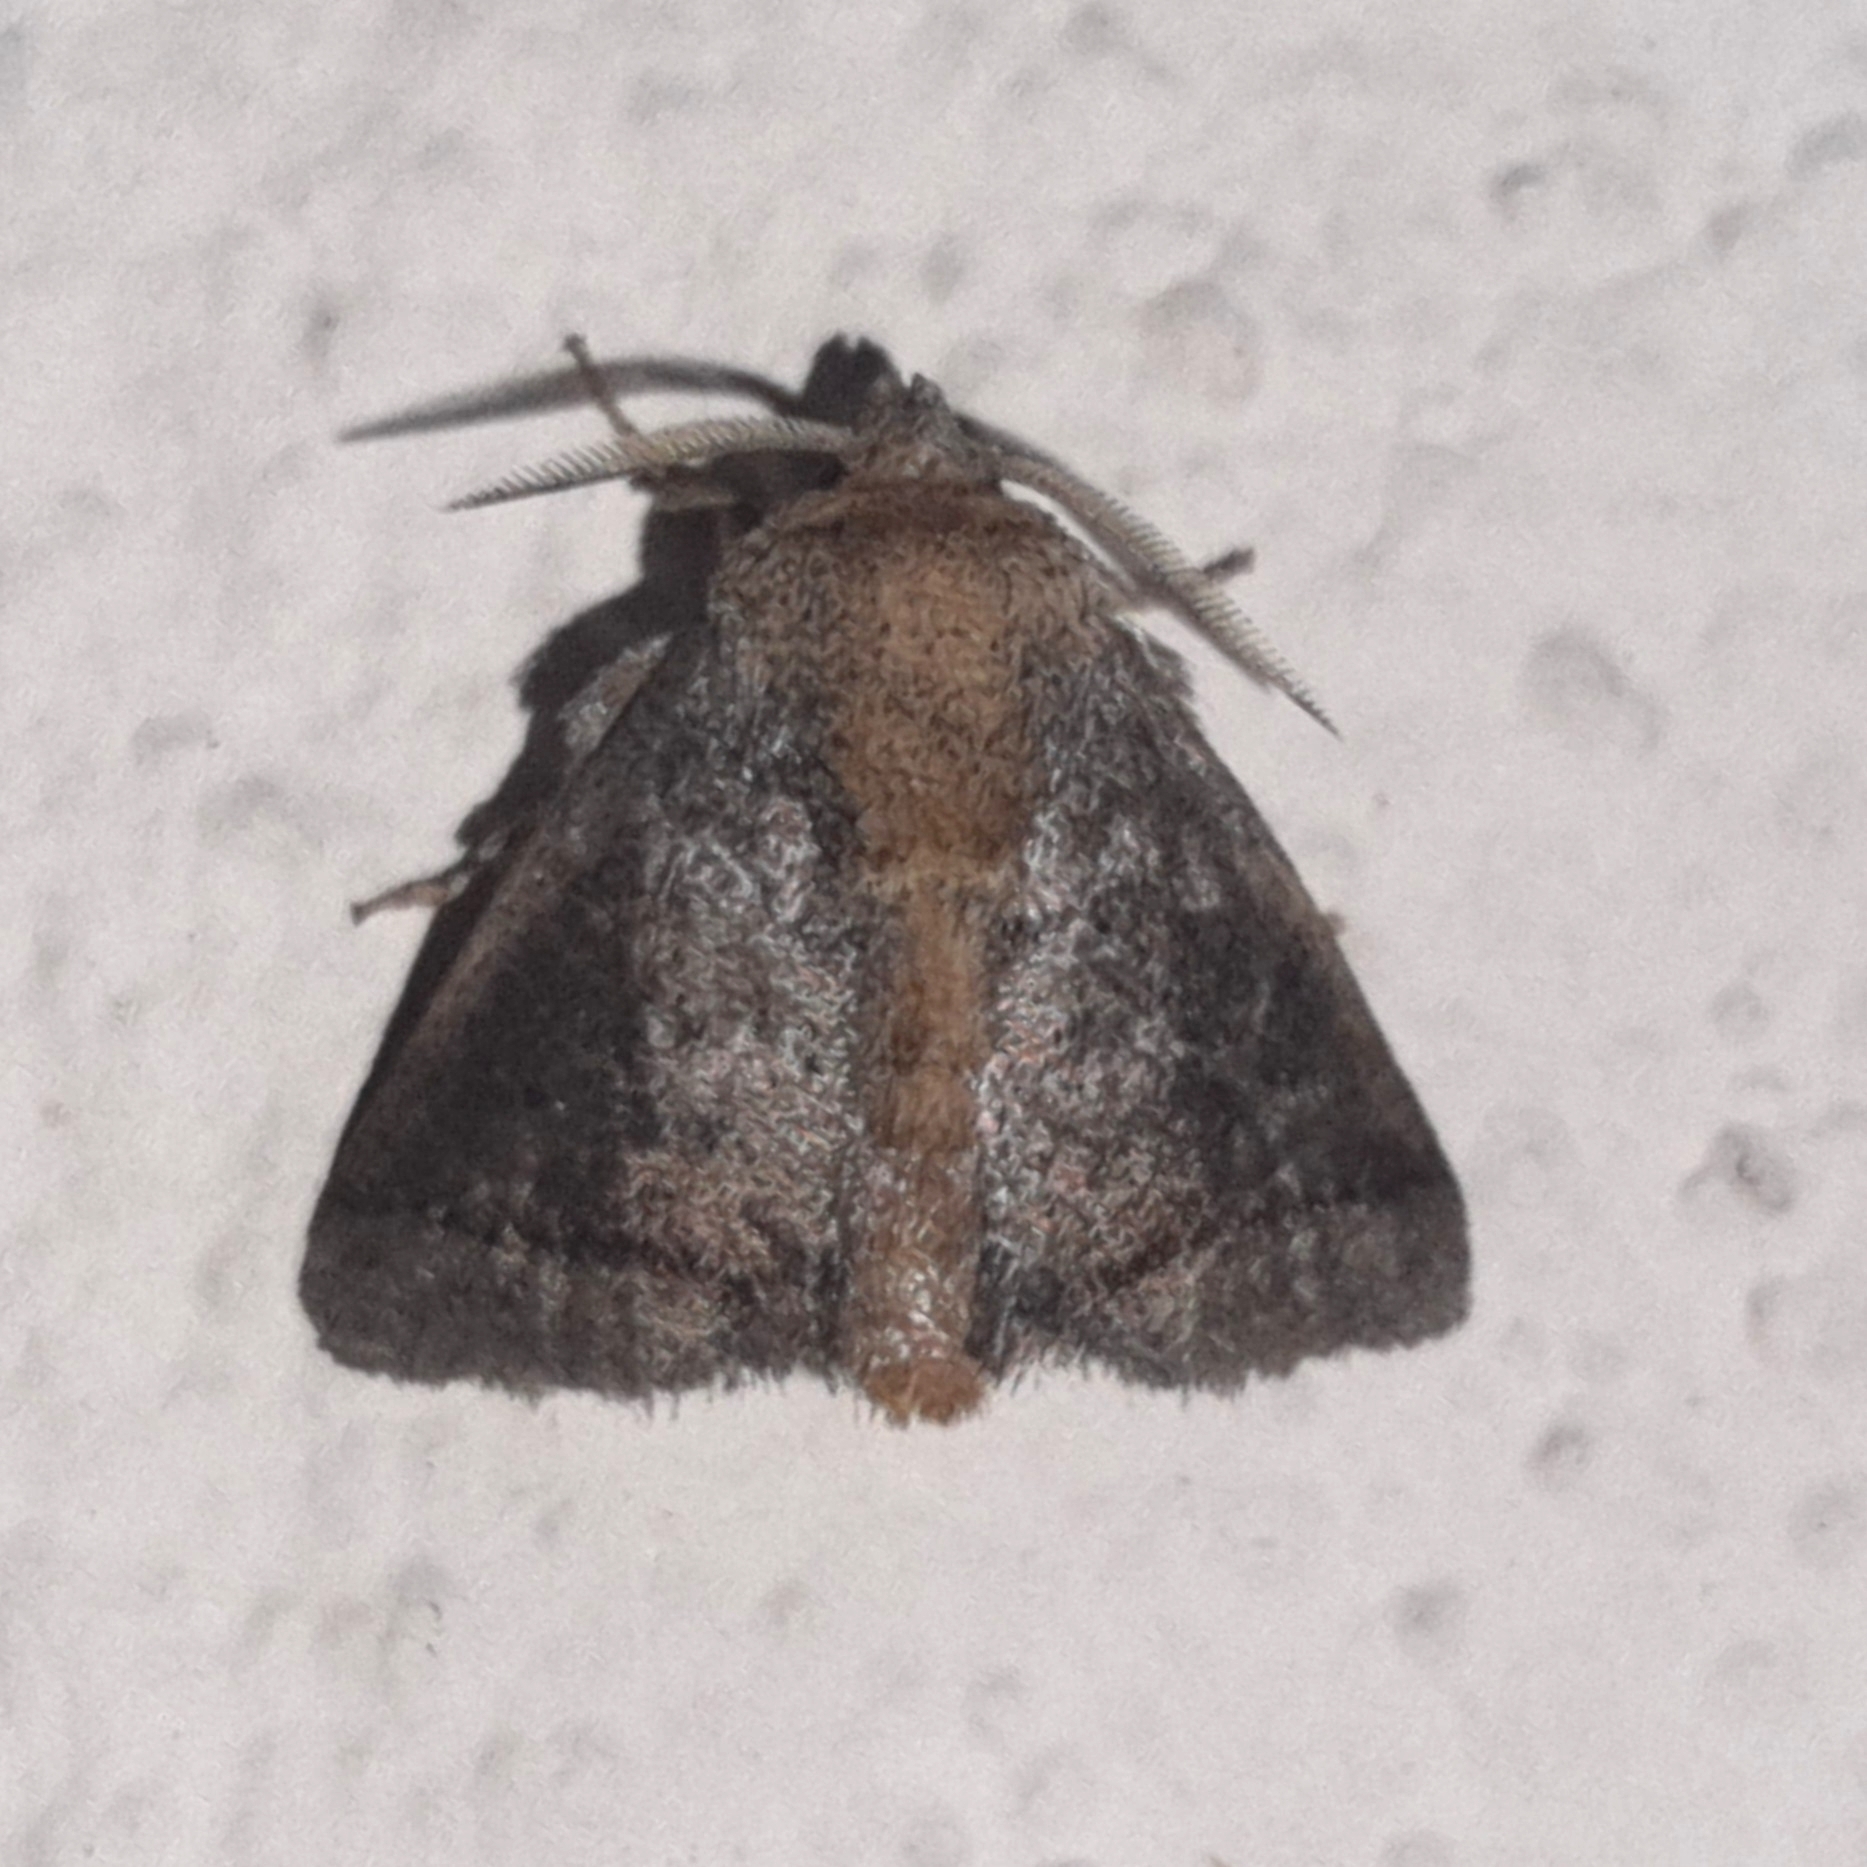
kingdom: Animalia
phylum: Arthropoda
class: Insecta
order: Lepidoptera
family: Limacodidae
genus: Natada
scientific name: Natada caria
